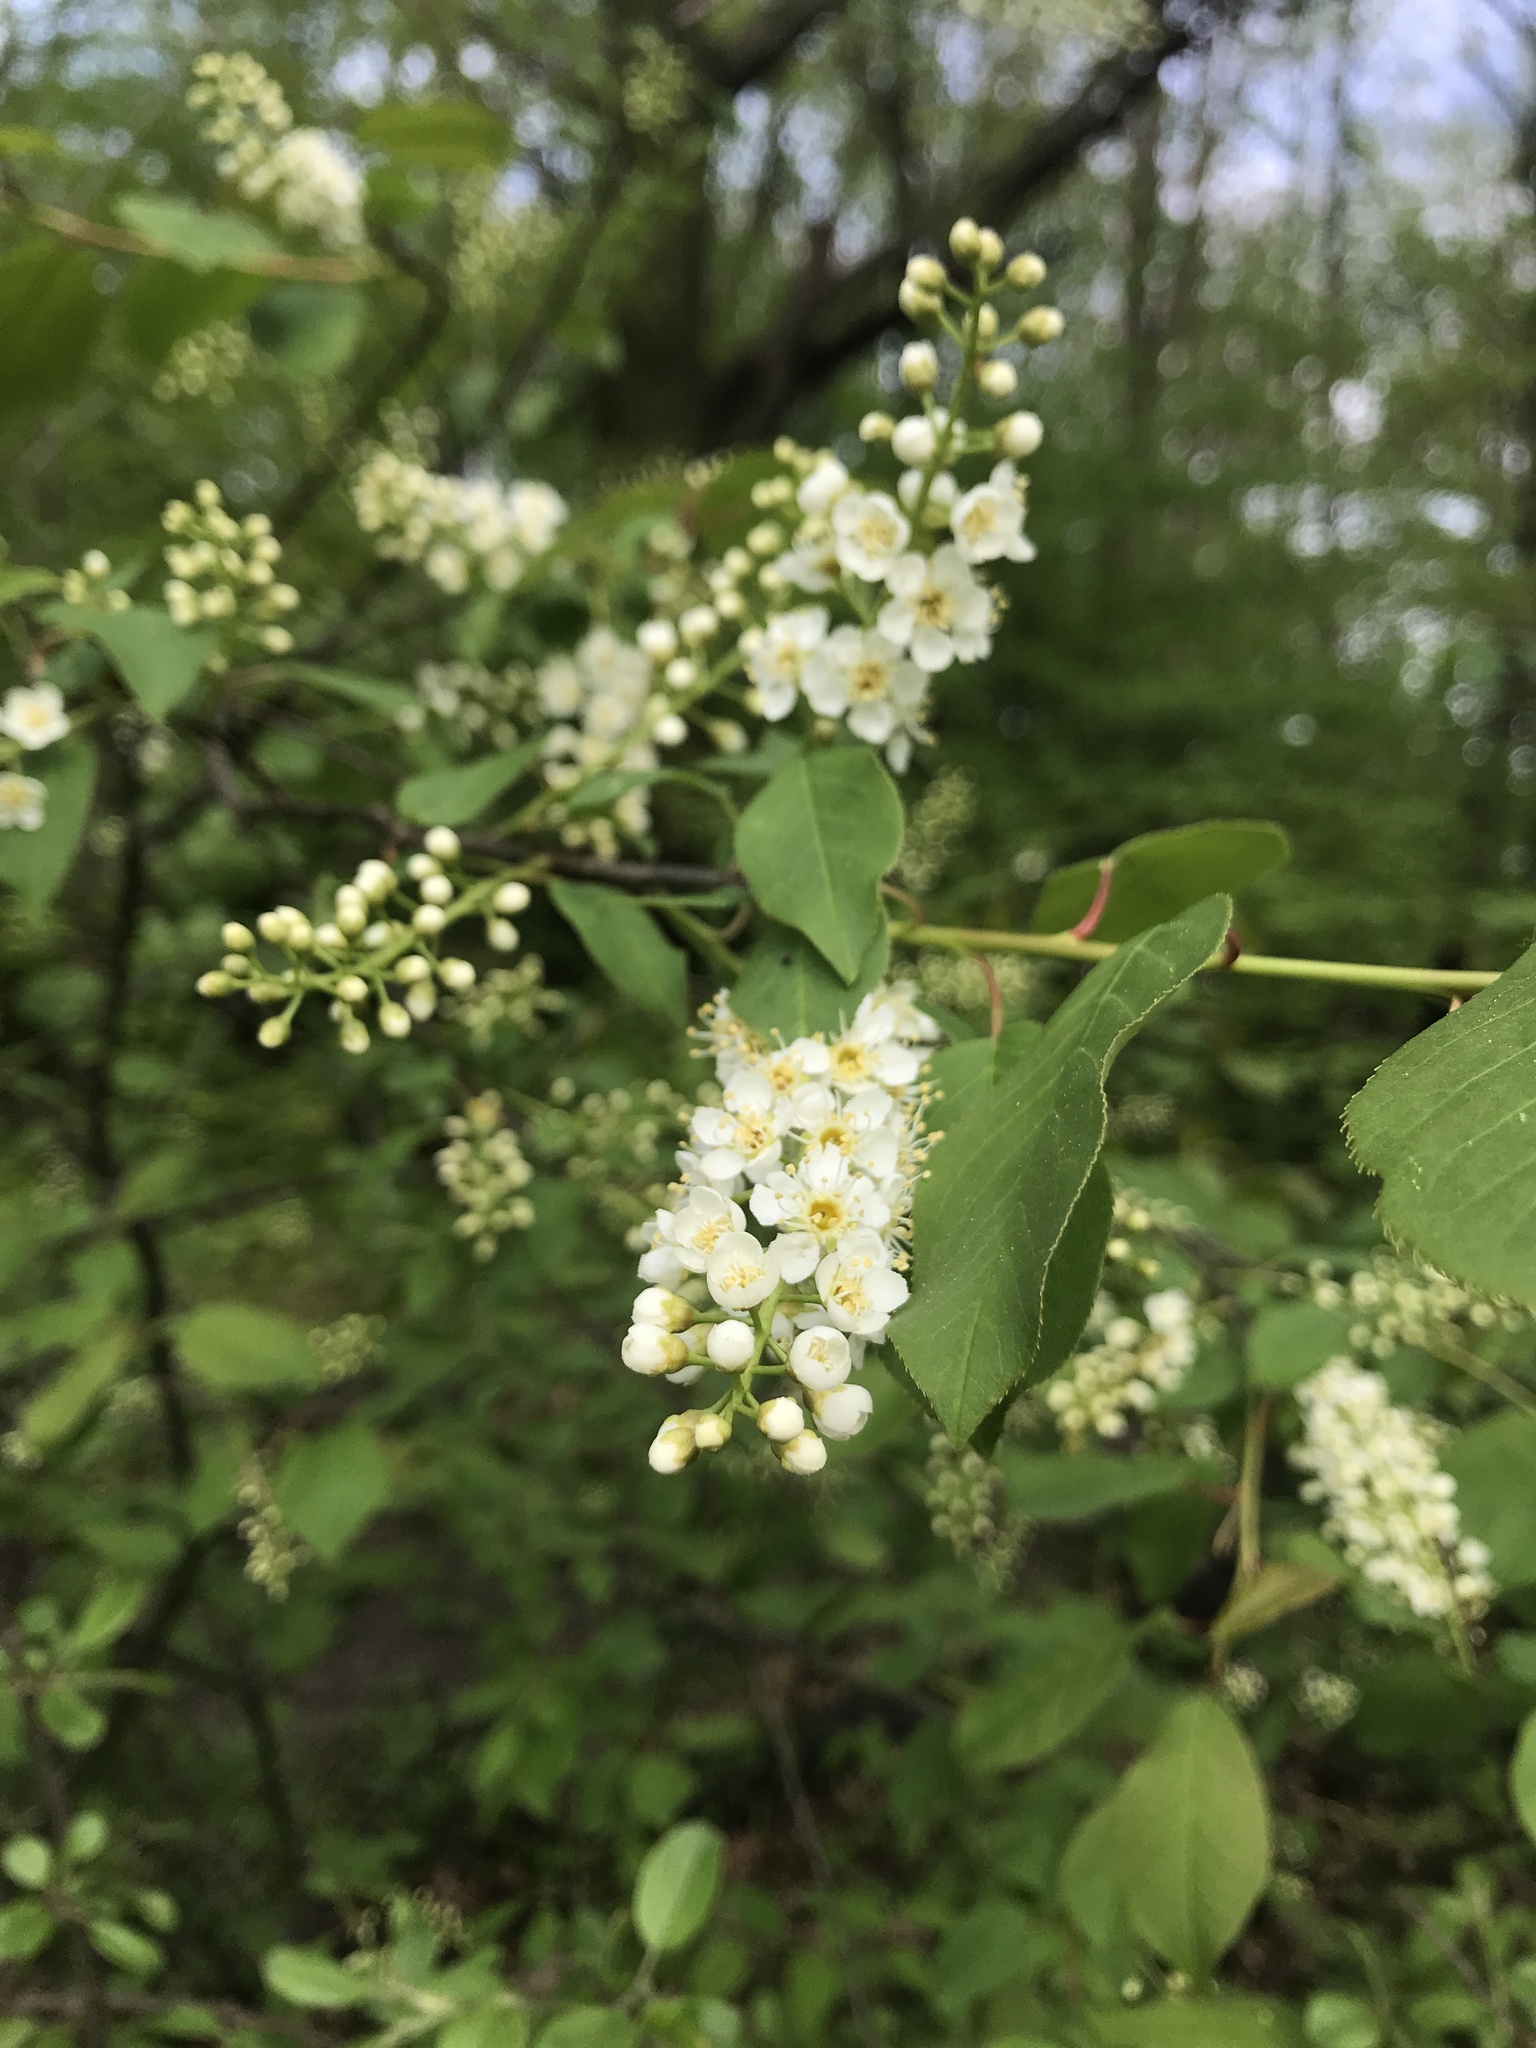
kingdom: Plantae
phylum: Tracheophyta
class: Magnoliopsida
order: Rosales
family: Rosaceae
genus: Prunus
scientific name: Prunus virginiana
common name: Chokecherry
